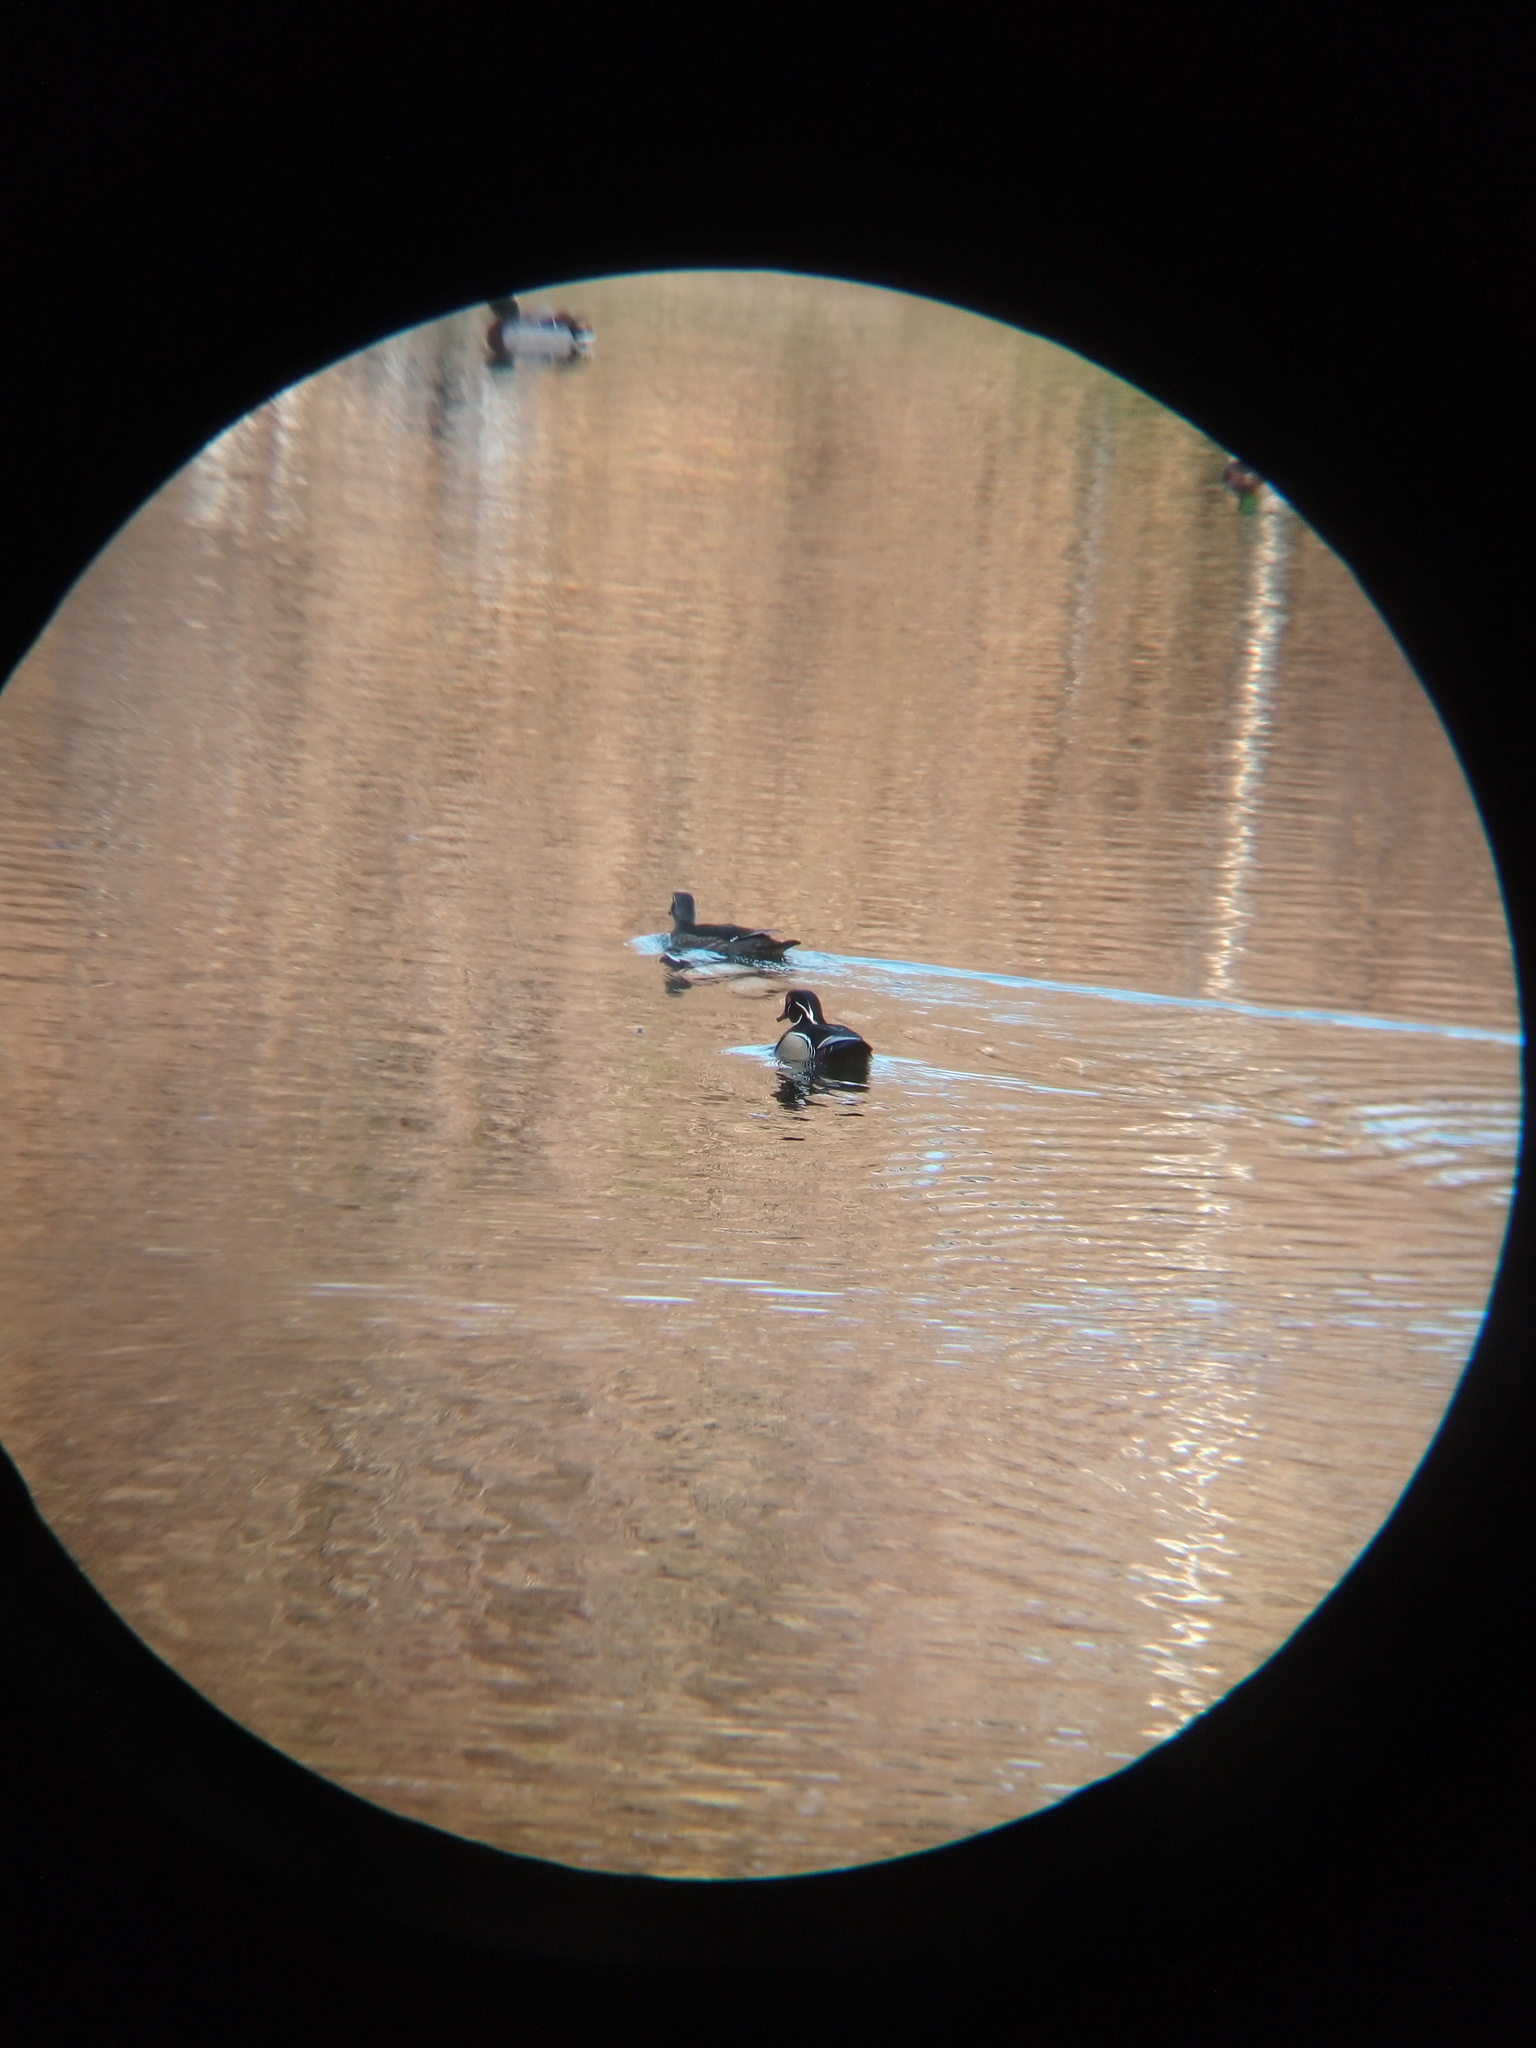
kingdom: Animalia
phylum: Chordata
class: Aves
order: Anseriformes
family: Anatidae
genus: Aix
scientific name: Aix sponsa
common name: Wood duck
